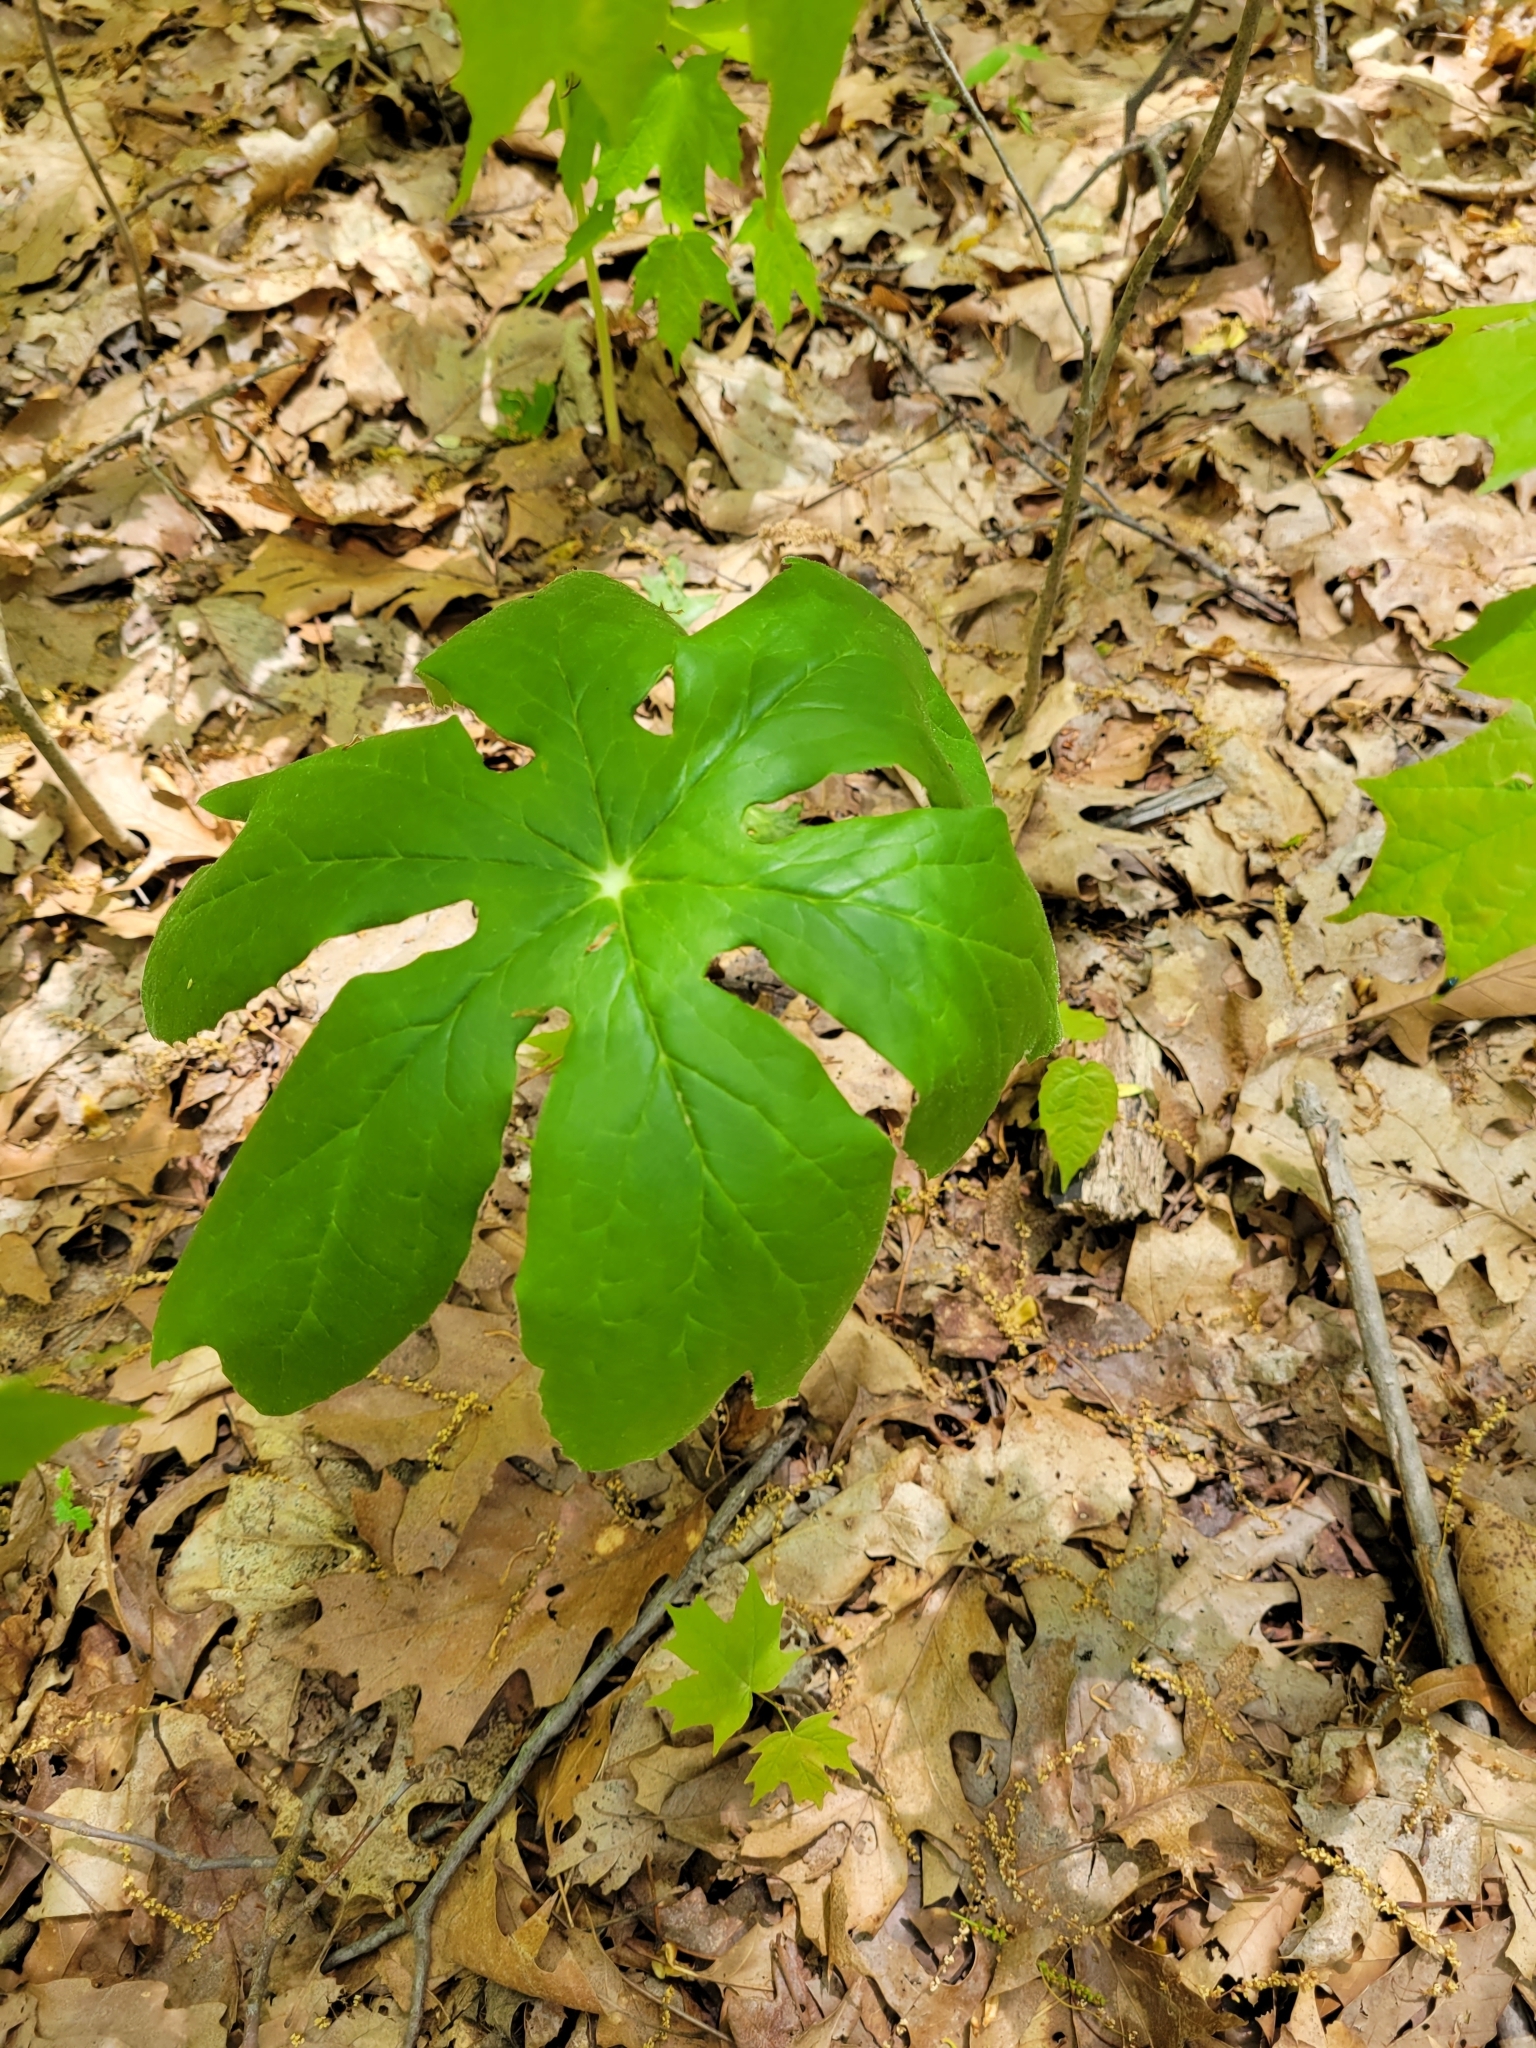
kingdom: Plantae
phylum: Tracheophyta
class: Magnoliopsida
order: Ranunculales
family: Berberidaceae
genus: Podophyllum
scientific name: Podophyllum peltatum
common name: Wild mandrake
